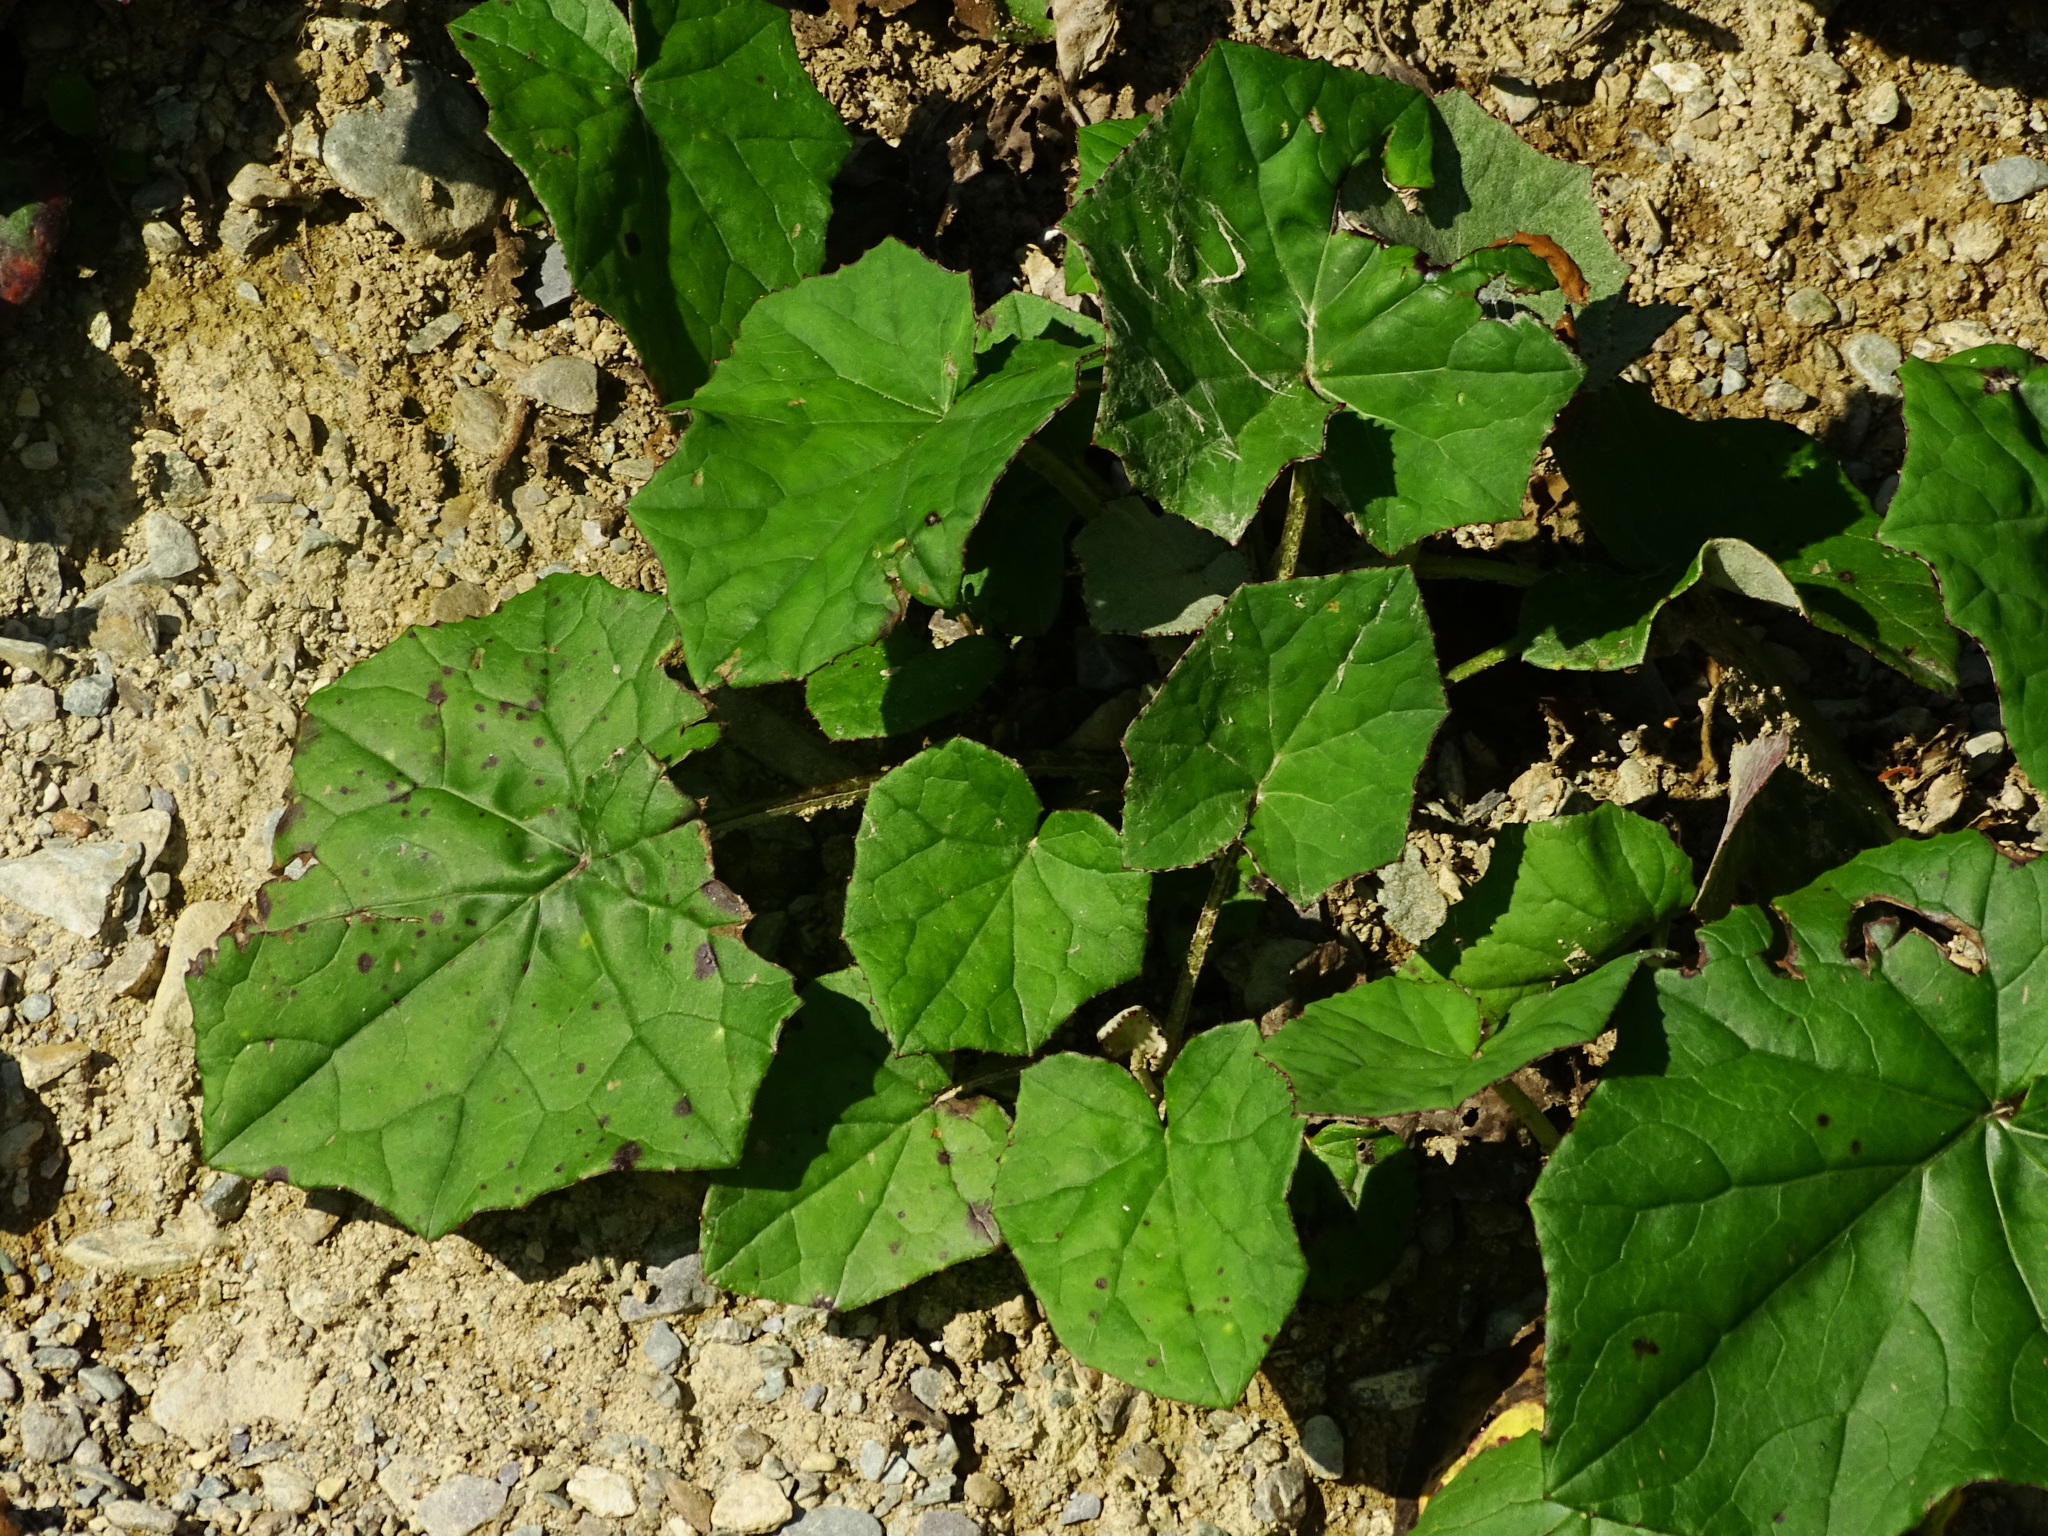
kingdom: Plantae
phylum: Tracheophyta
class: Magnoliopsida
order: Asterales
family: Asteraceae
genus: Tussilago
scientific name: Tussilago farfara
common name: Coltsfoot
